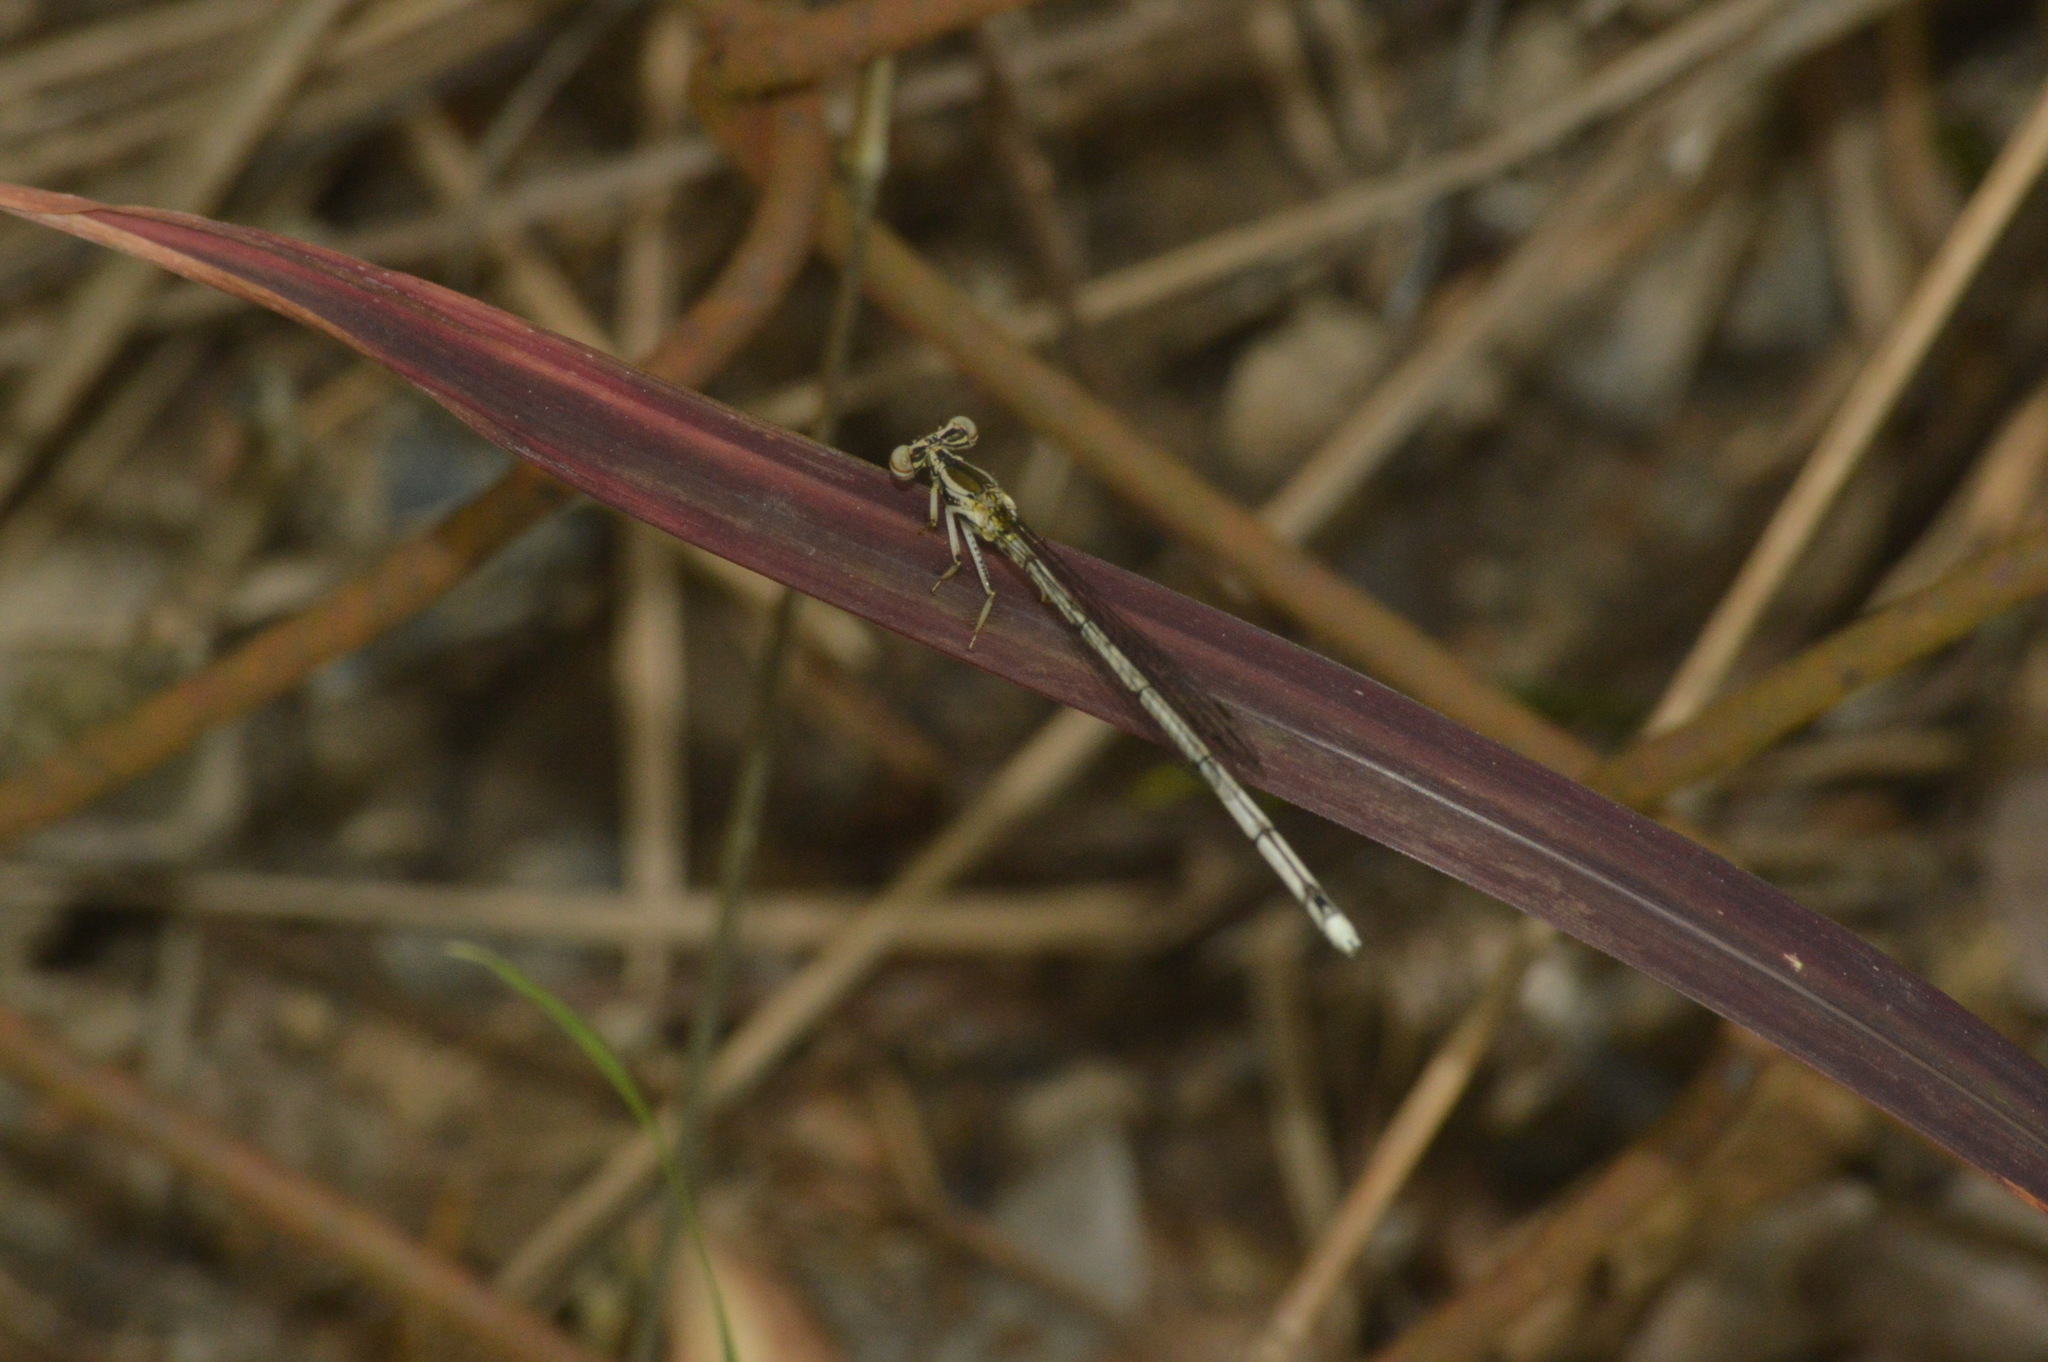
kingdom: Animalia
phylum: Arthropoda
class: Insecta
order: Odonata
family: Platycnemididae
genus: Copera
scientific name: Copera marginipes
